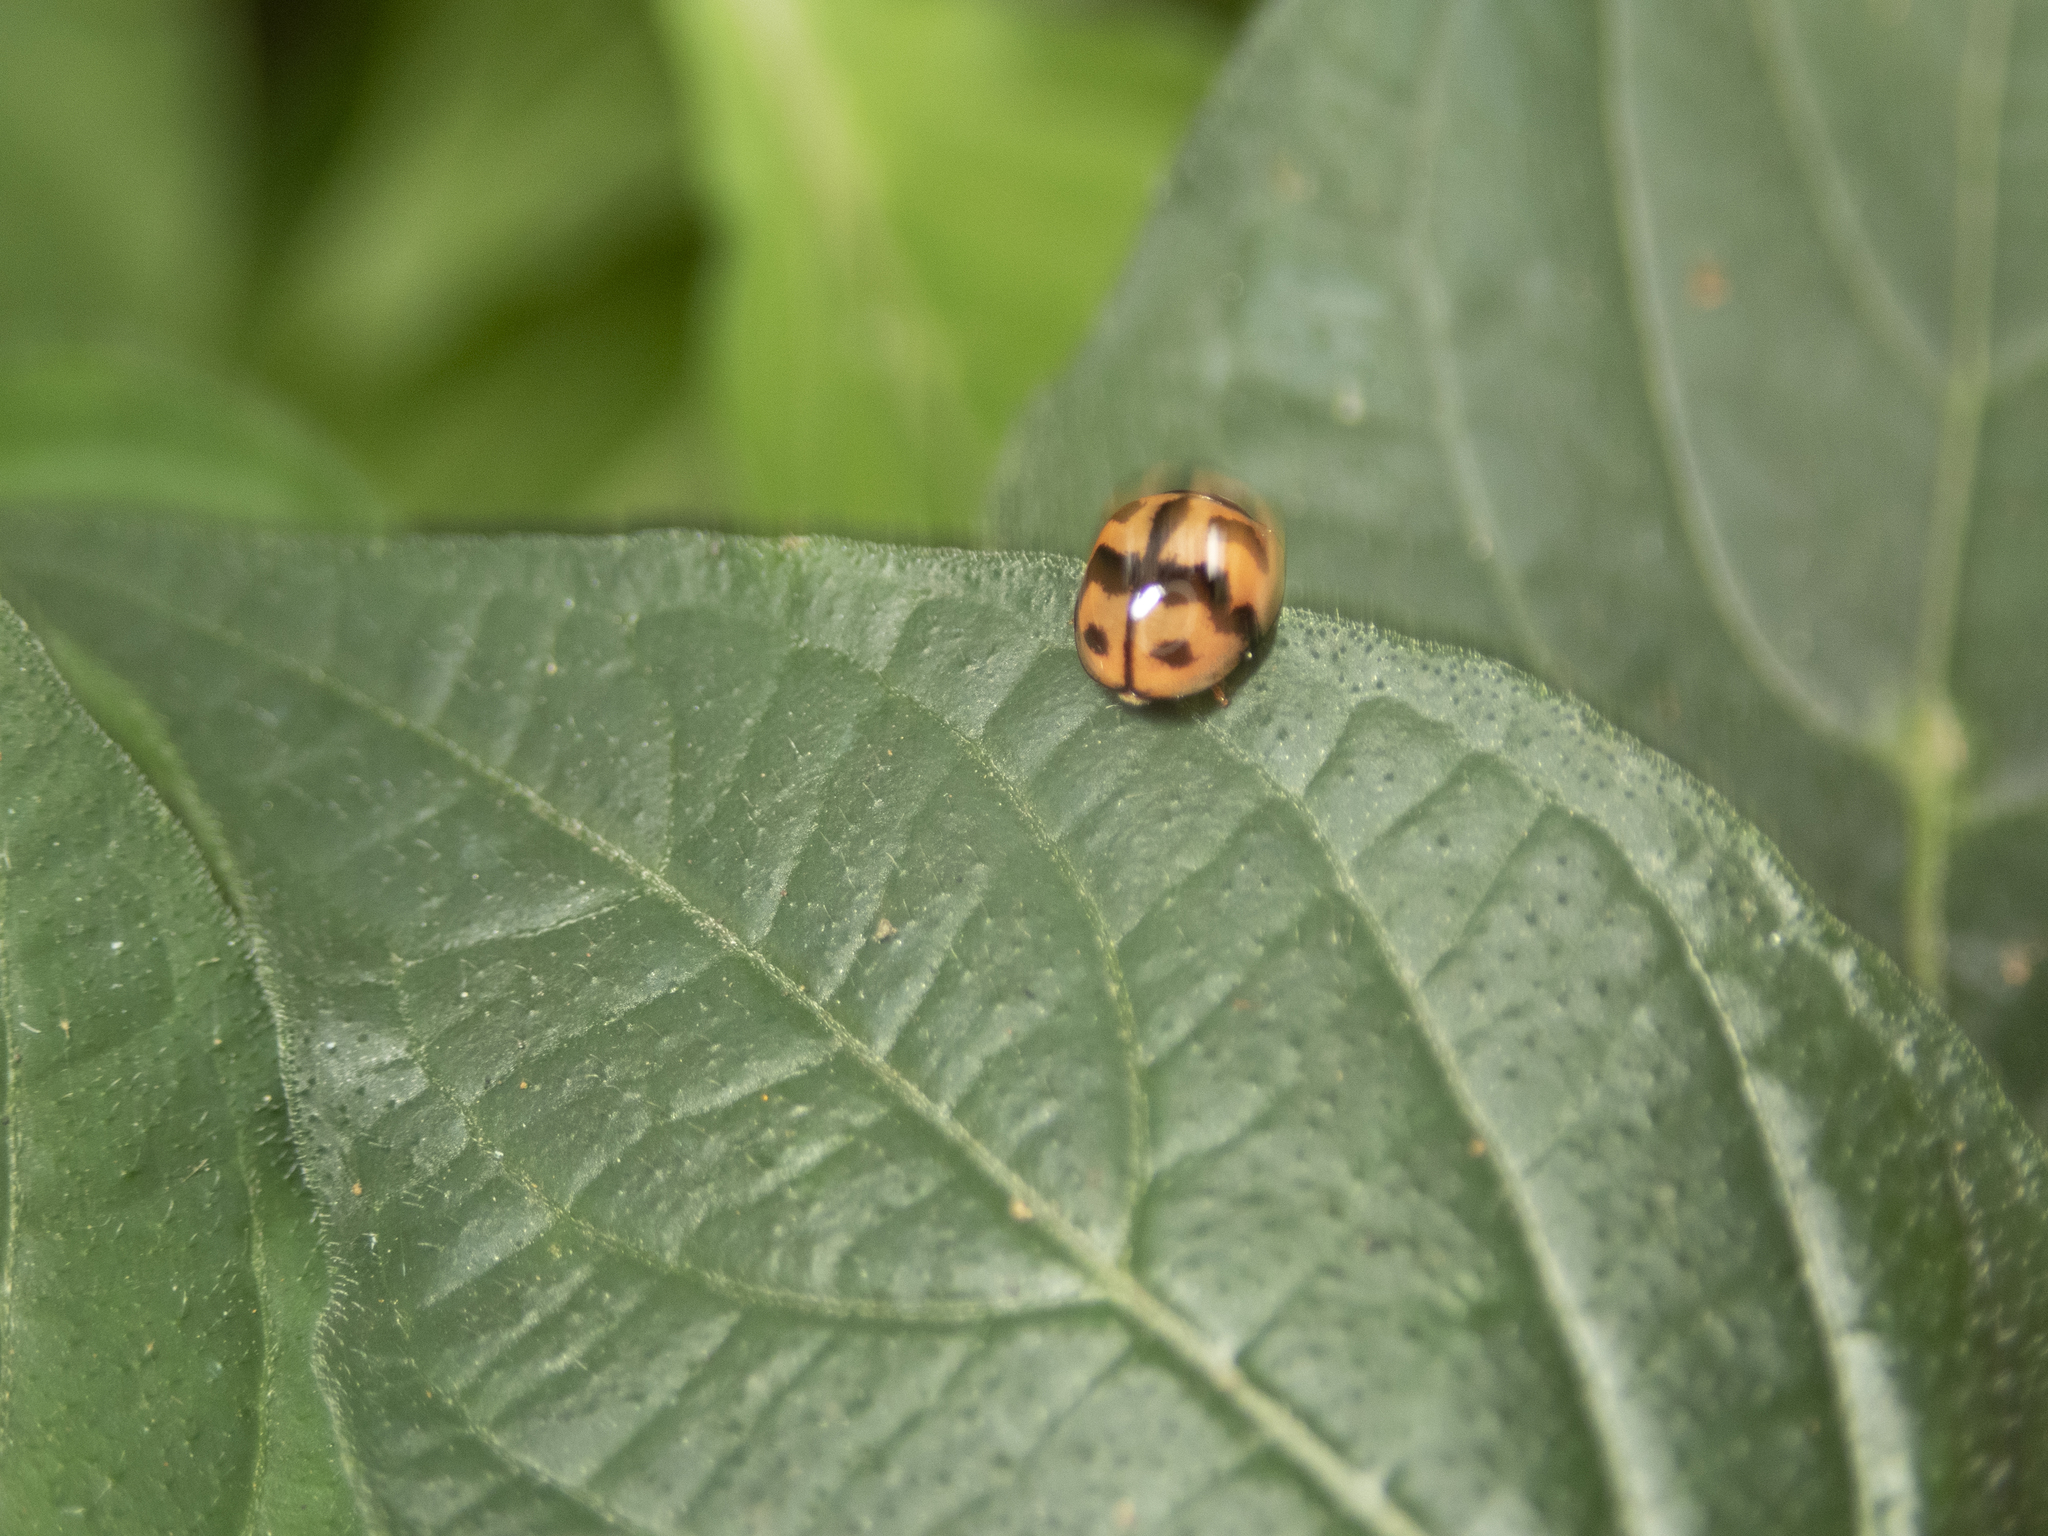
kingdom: Animalia
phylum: Arthropoda
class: Insecta
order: Coleoptera
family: Coccinellidae
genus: Cheilomenes
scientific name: Cheilomenes sexmaculata
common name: Ladybird beetle
